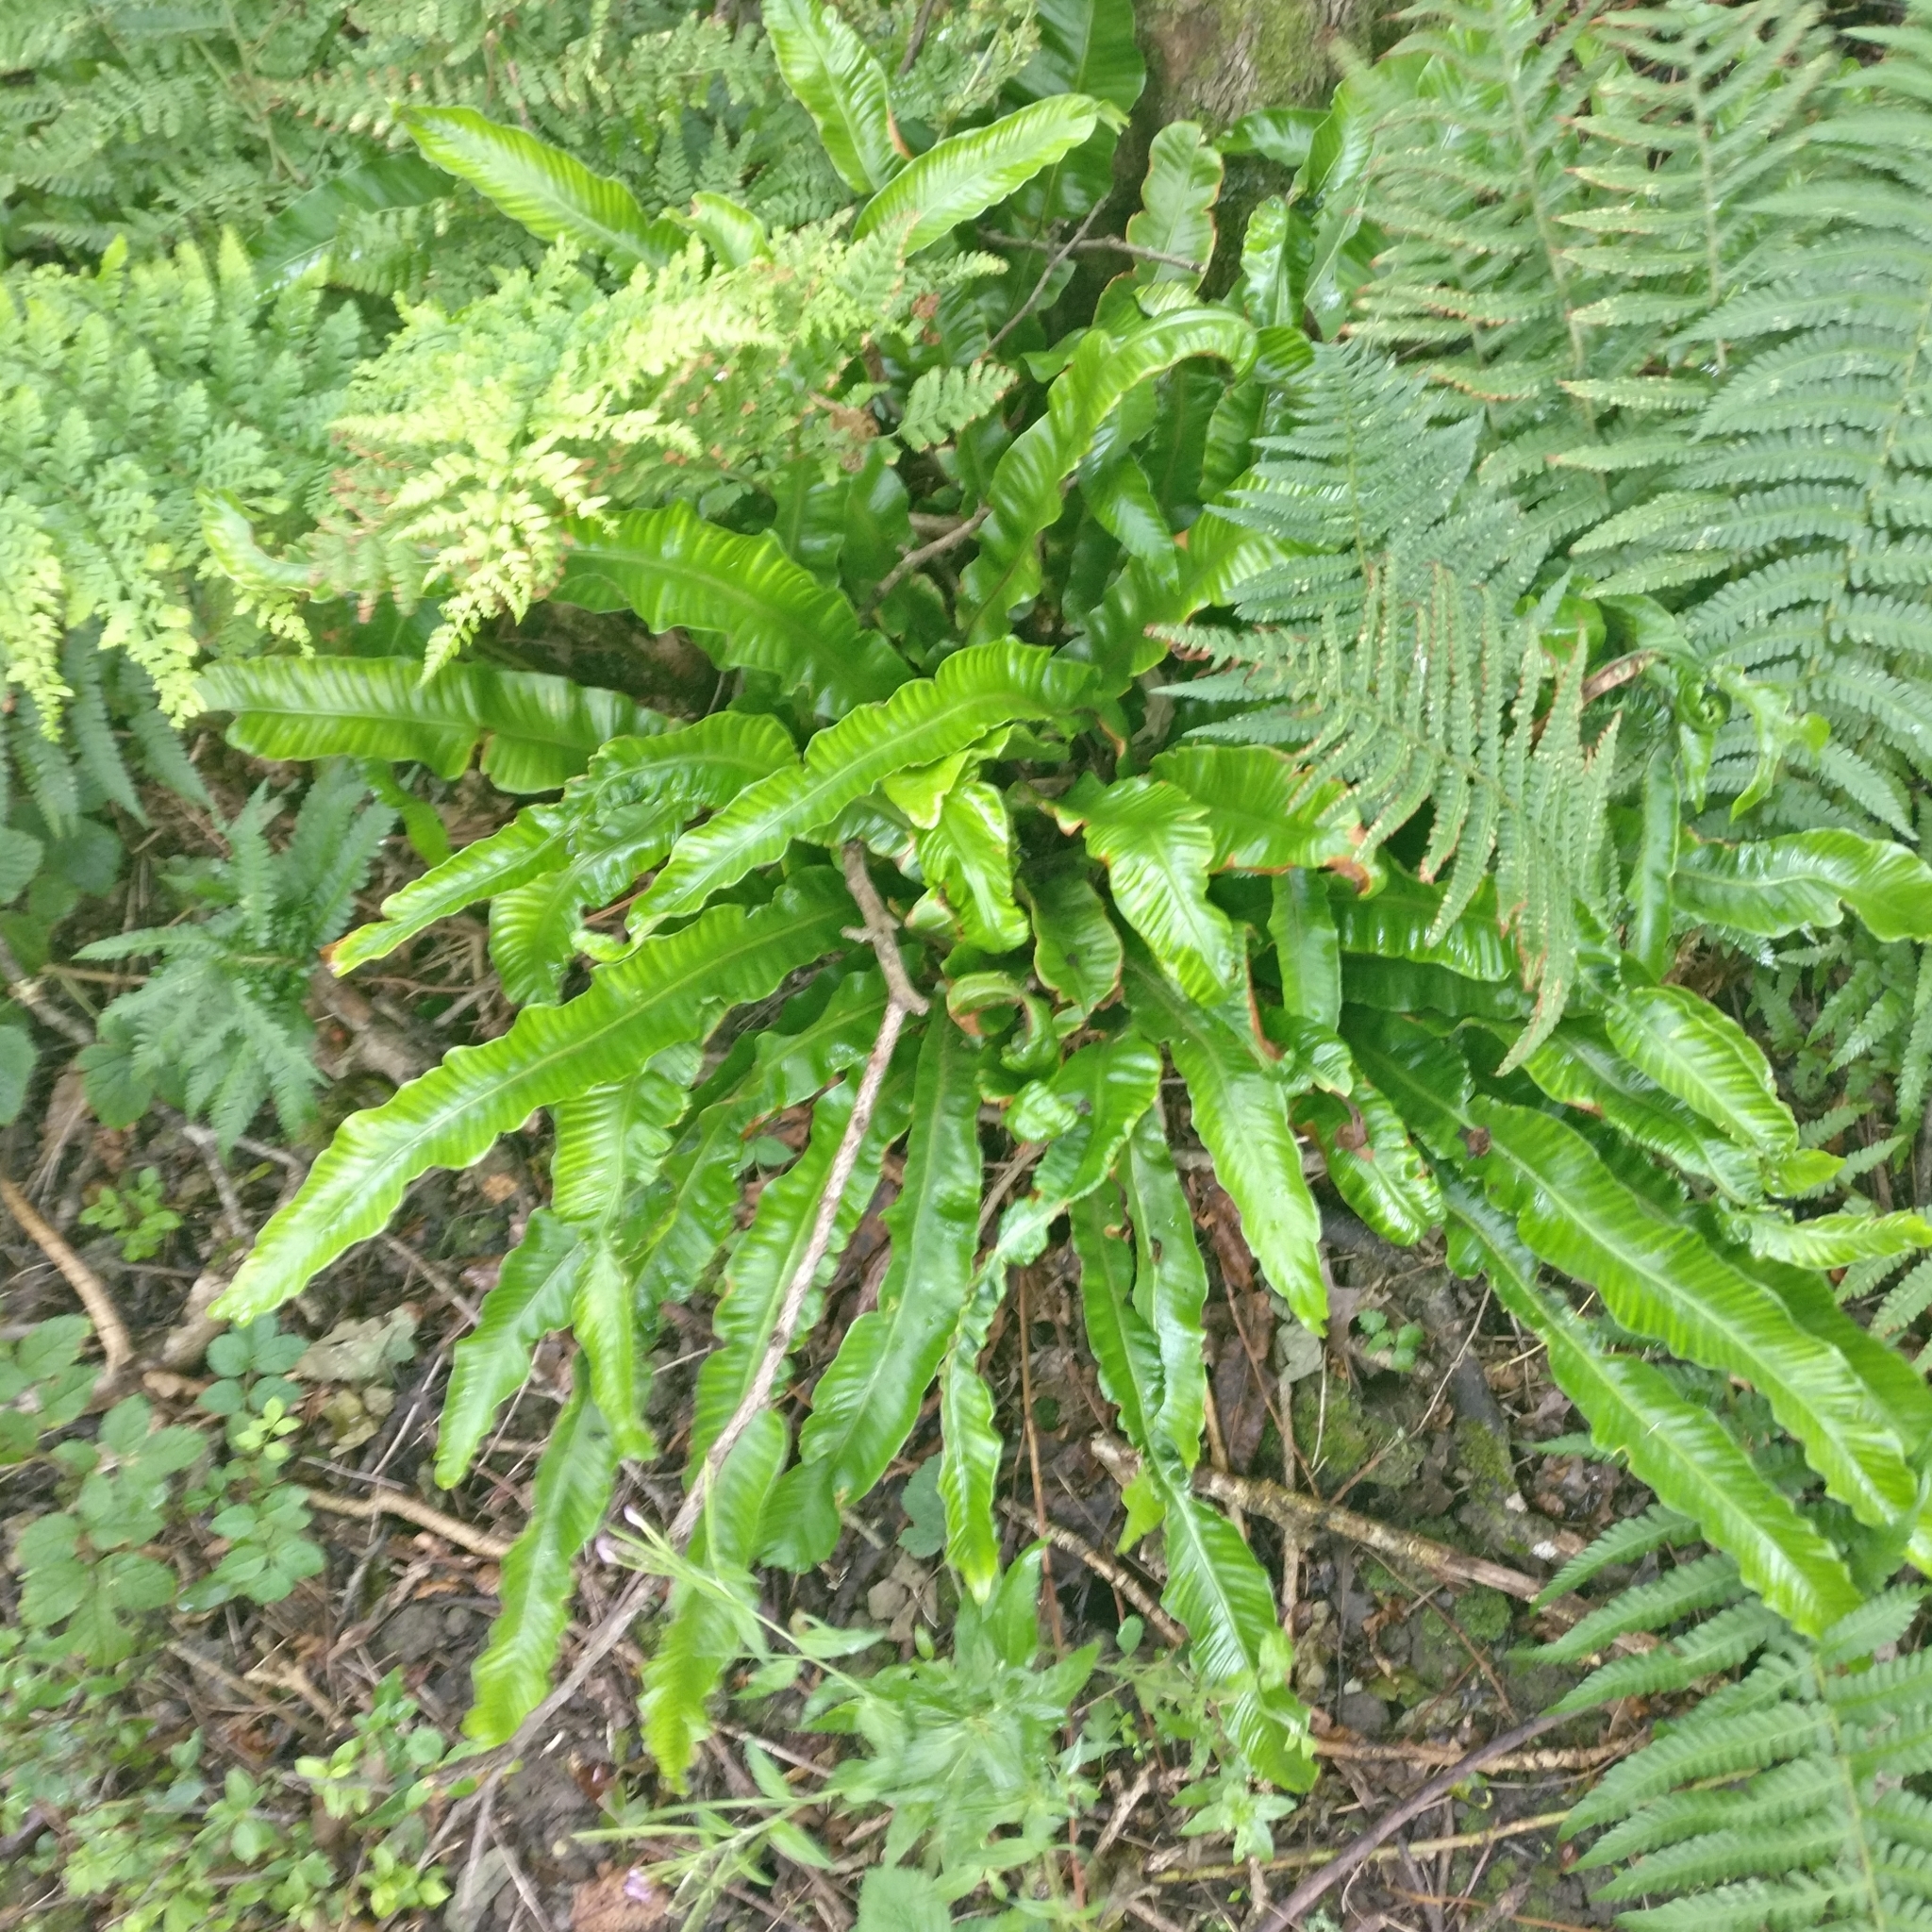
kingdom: Plantae
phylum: Tracheophyta
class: Polypodiopsida
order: Polypodiales
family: Aspleniaceae
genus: Asplenium
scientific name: Asplenium scolopendrium
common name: Hart's-tongue fern
